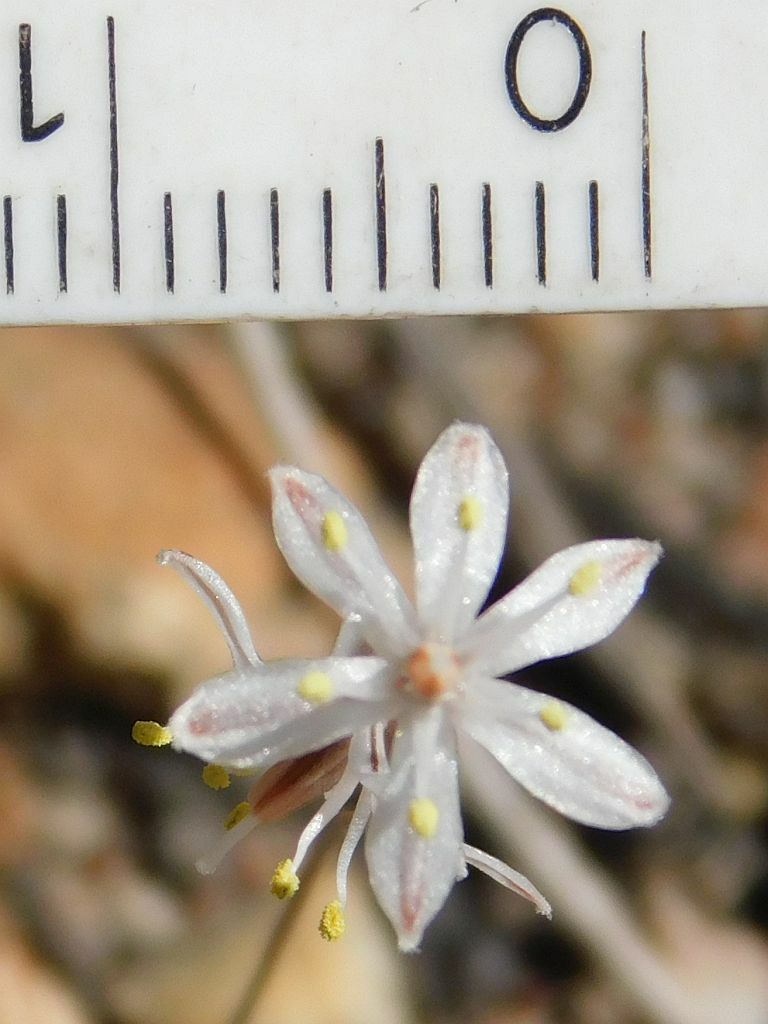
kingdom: Plantae
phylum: Tracheophyta
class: Liliopsida
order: Asparagales
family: Asparagaceae
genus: Fusifilum
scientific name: Fusifilum physodes
